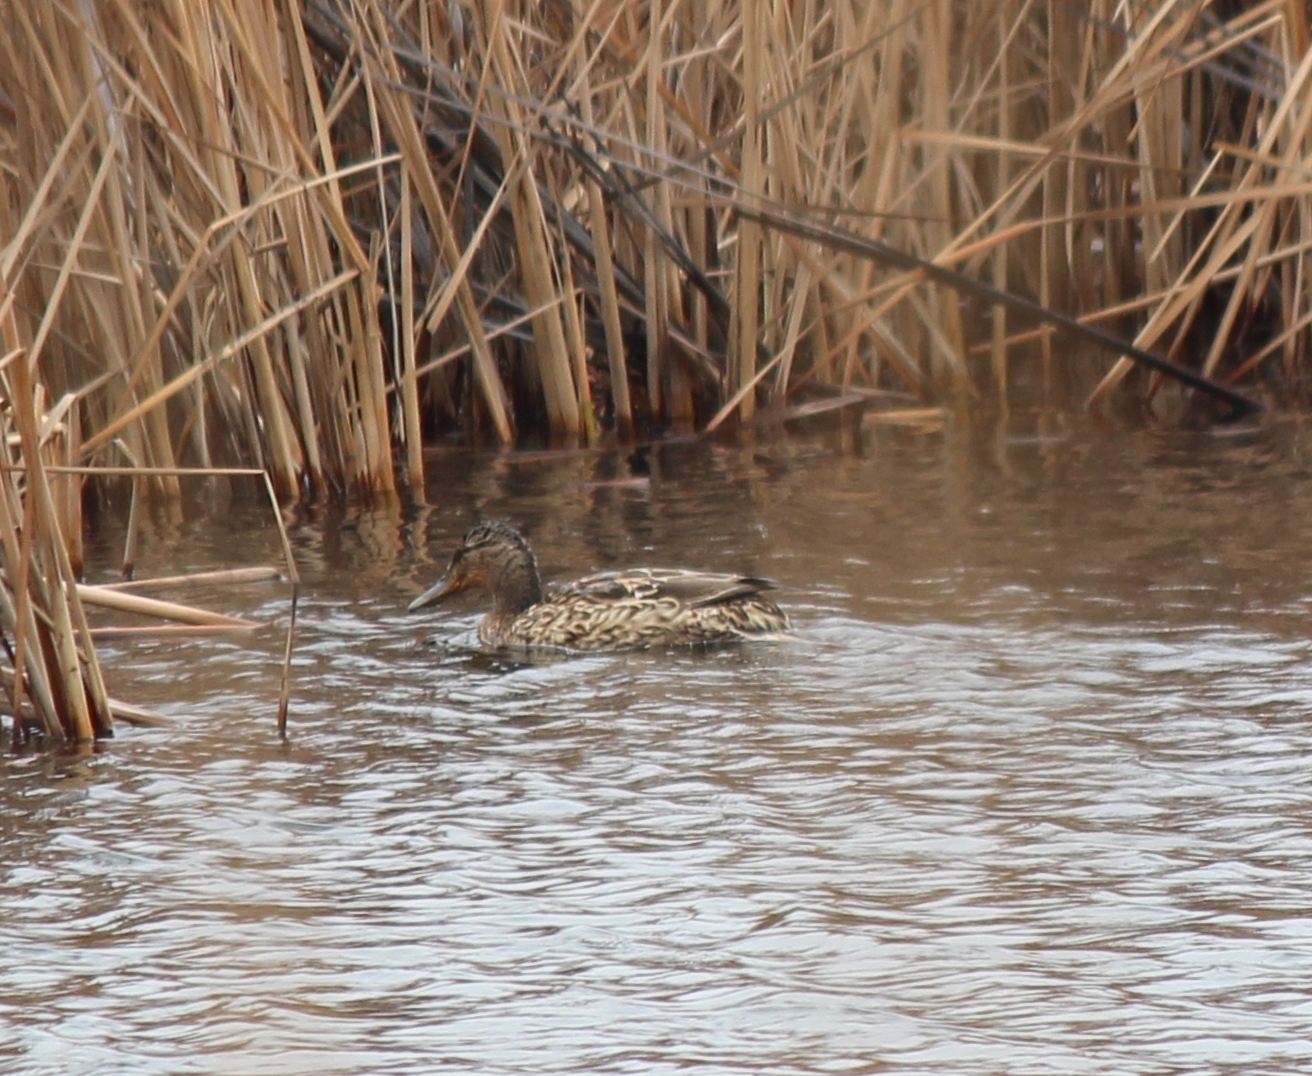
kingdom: Animalia
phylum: Chordata
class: Aves
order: Anseriformes
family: Anatidae
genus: Anas
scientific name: Anas platyrhynchos
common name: Mallard
